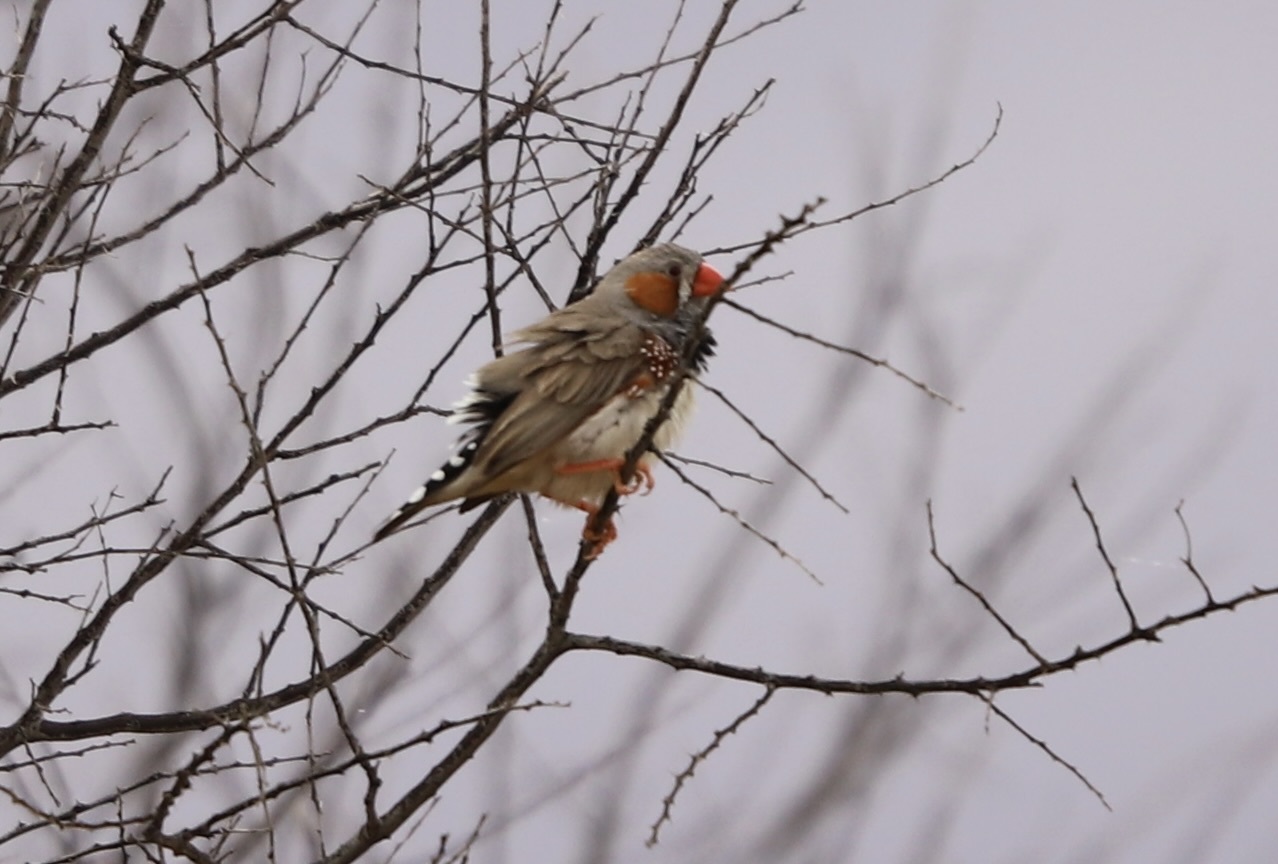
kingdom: Animalia
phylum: Chordata
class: Aves
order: Passeriformes
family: Estrildidae
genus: Taeniopygia
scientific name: Taeniopygia guttata
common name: Zebra finch
